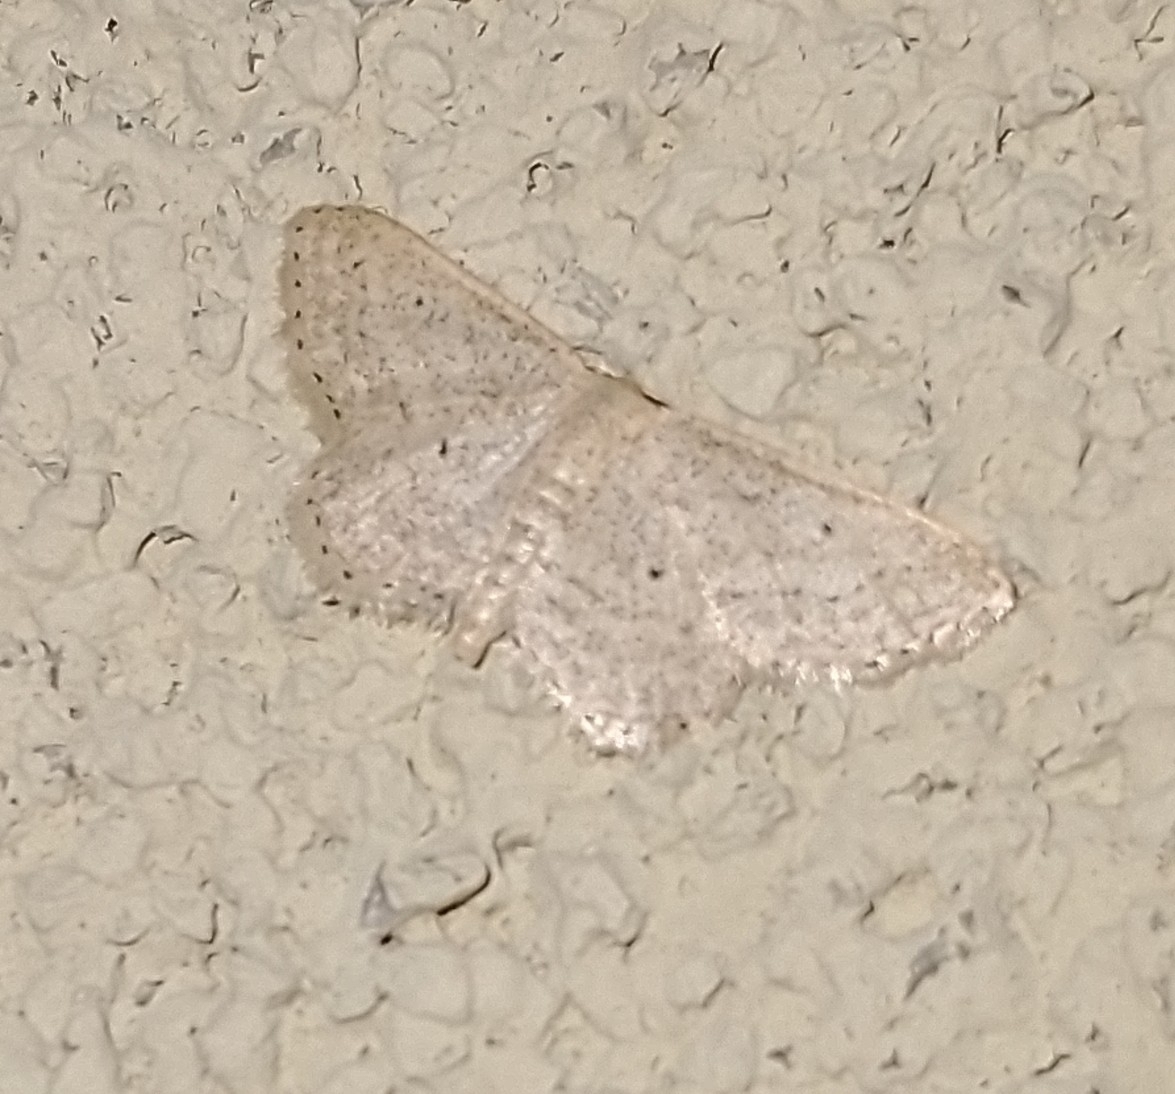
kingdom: Animalia
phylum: Arthropoda
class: Insecta
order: Lepidoptera
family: Geometridae
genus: Idaea
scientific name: Idaea palaestinensis
